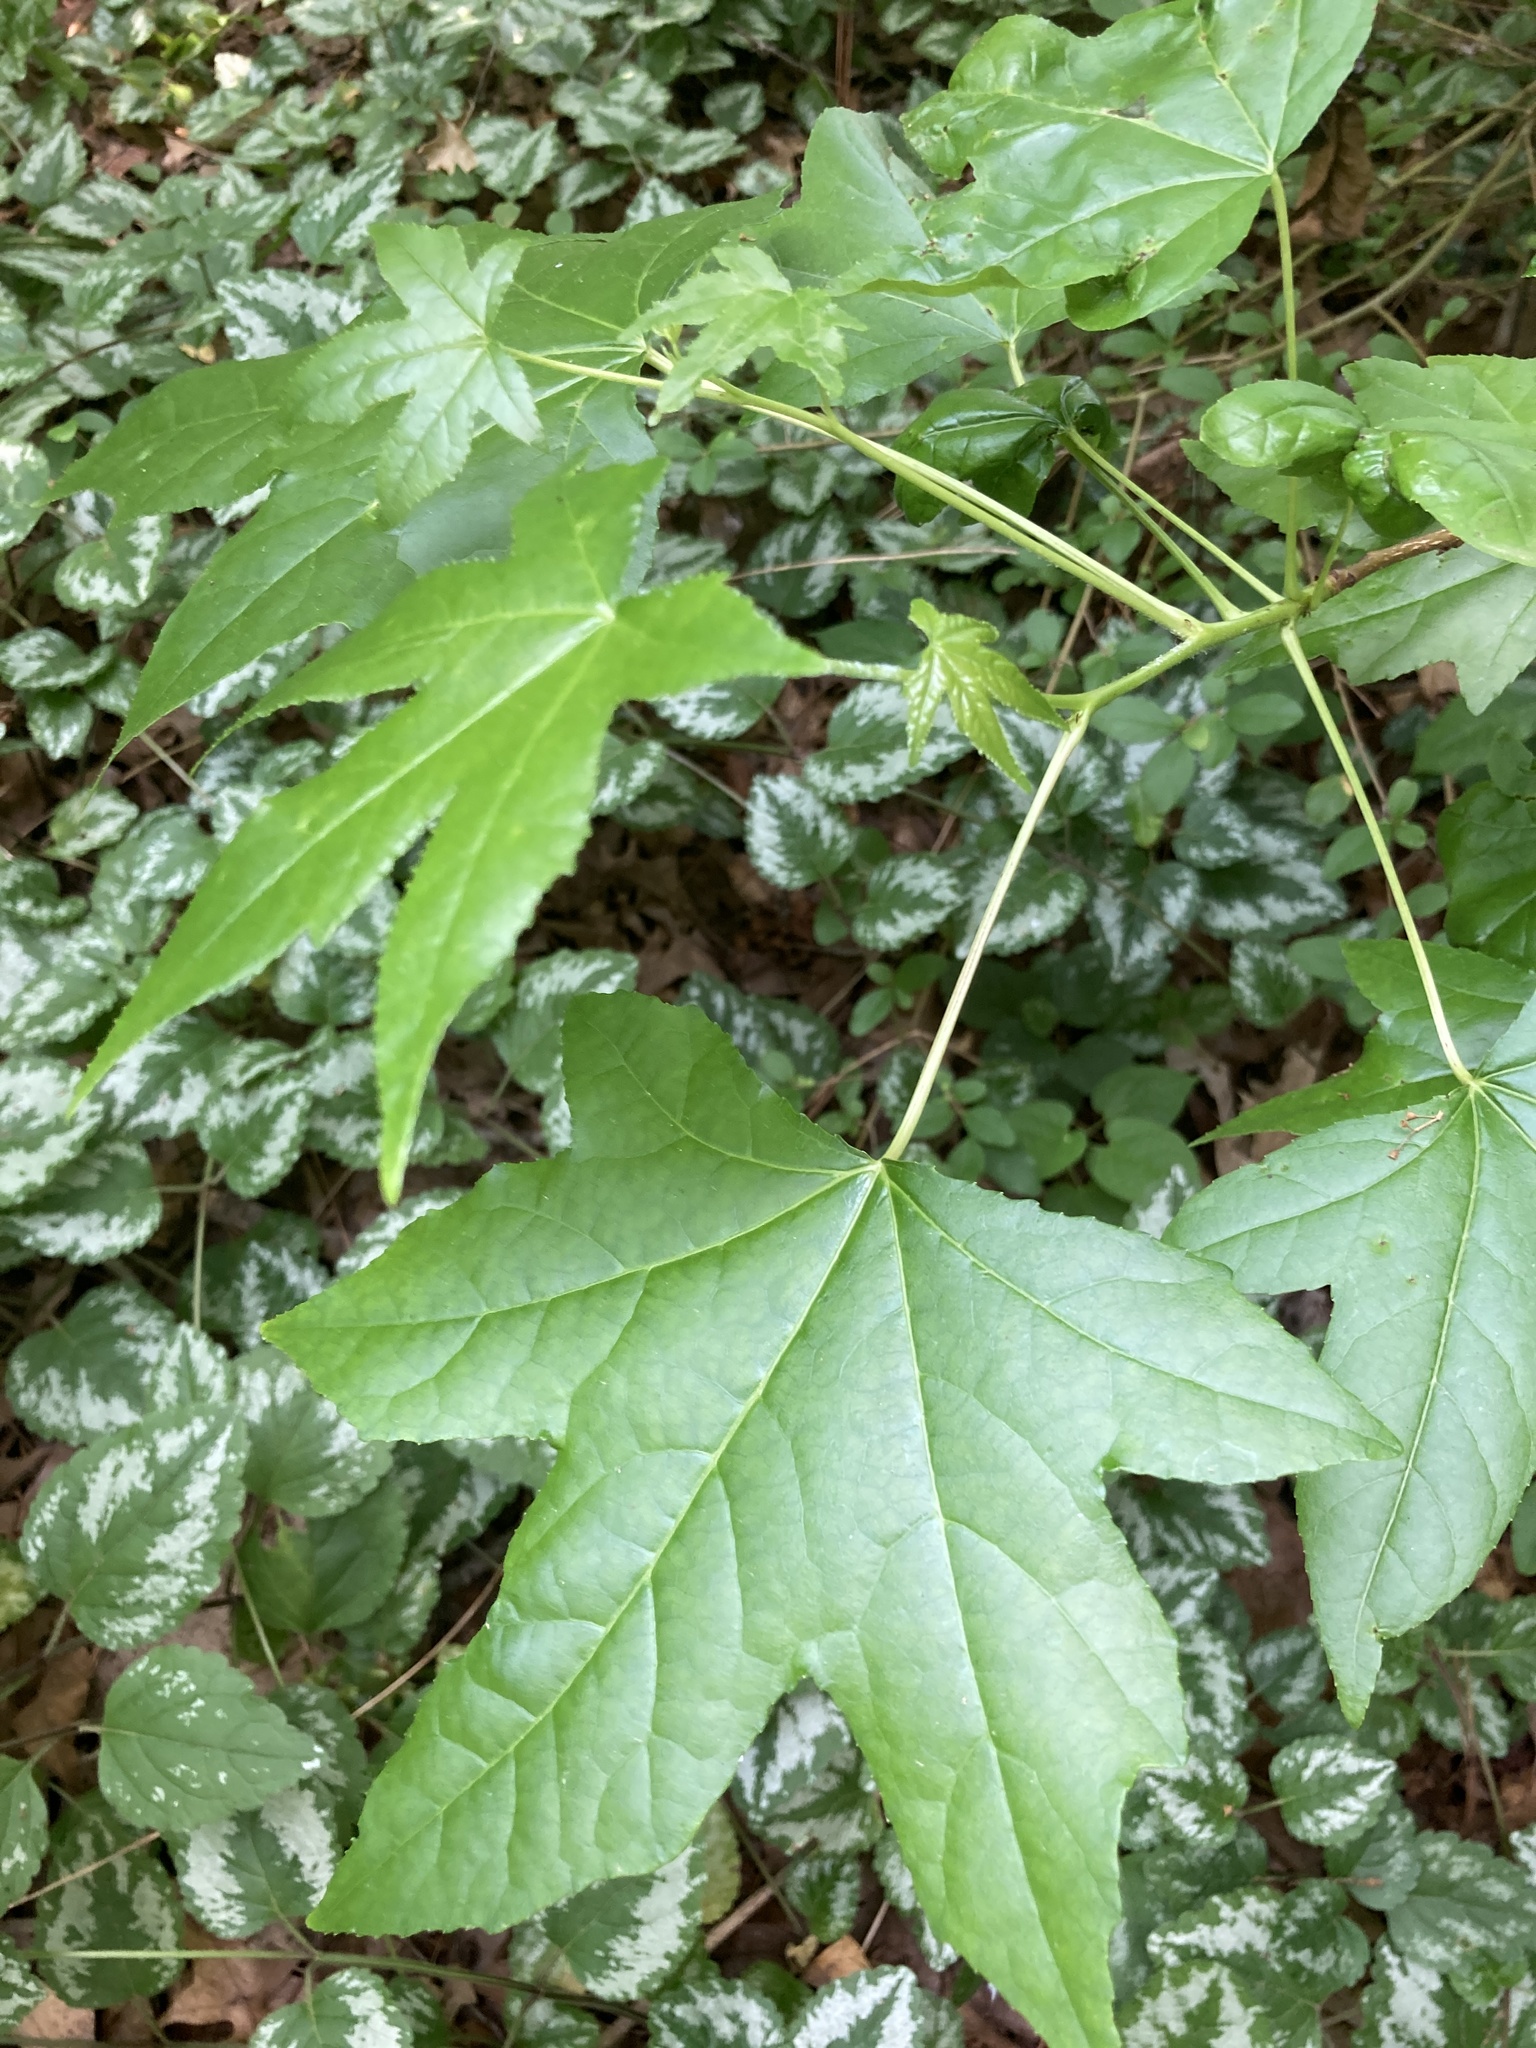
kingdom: Plantae
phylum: Tracheophyta
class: Magnoliopsida
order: Saxifragales
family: Altingiaceae
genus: Liquidambar
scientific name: Liquidambar styraciflua
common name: Sweet gum
